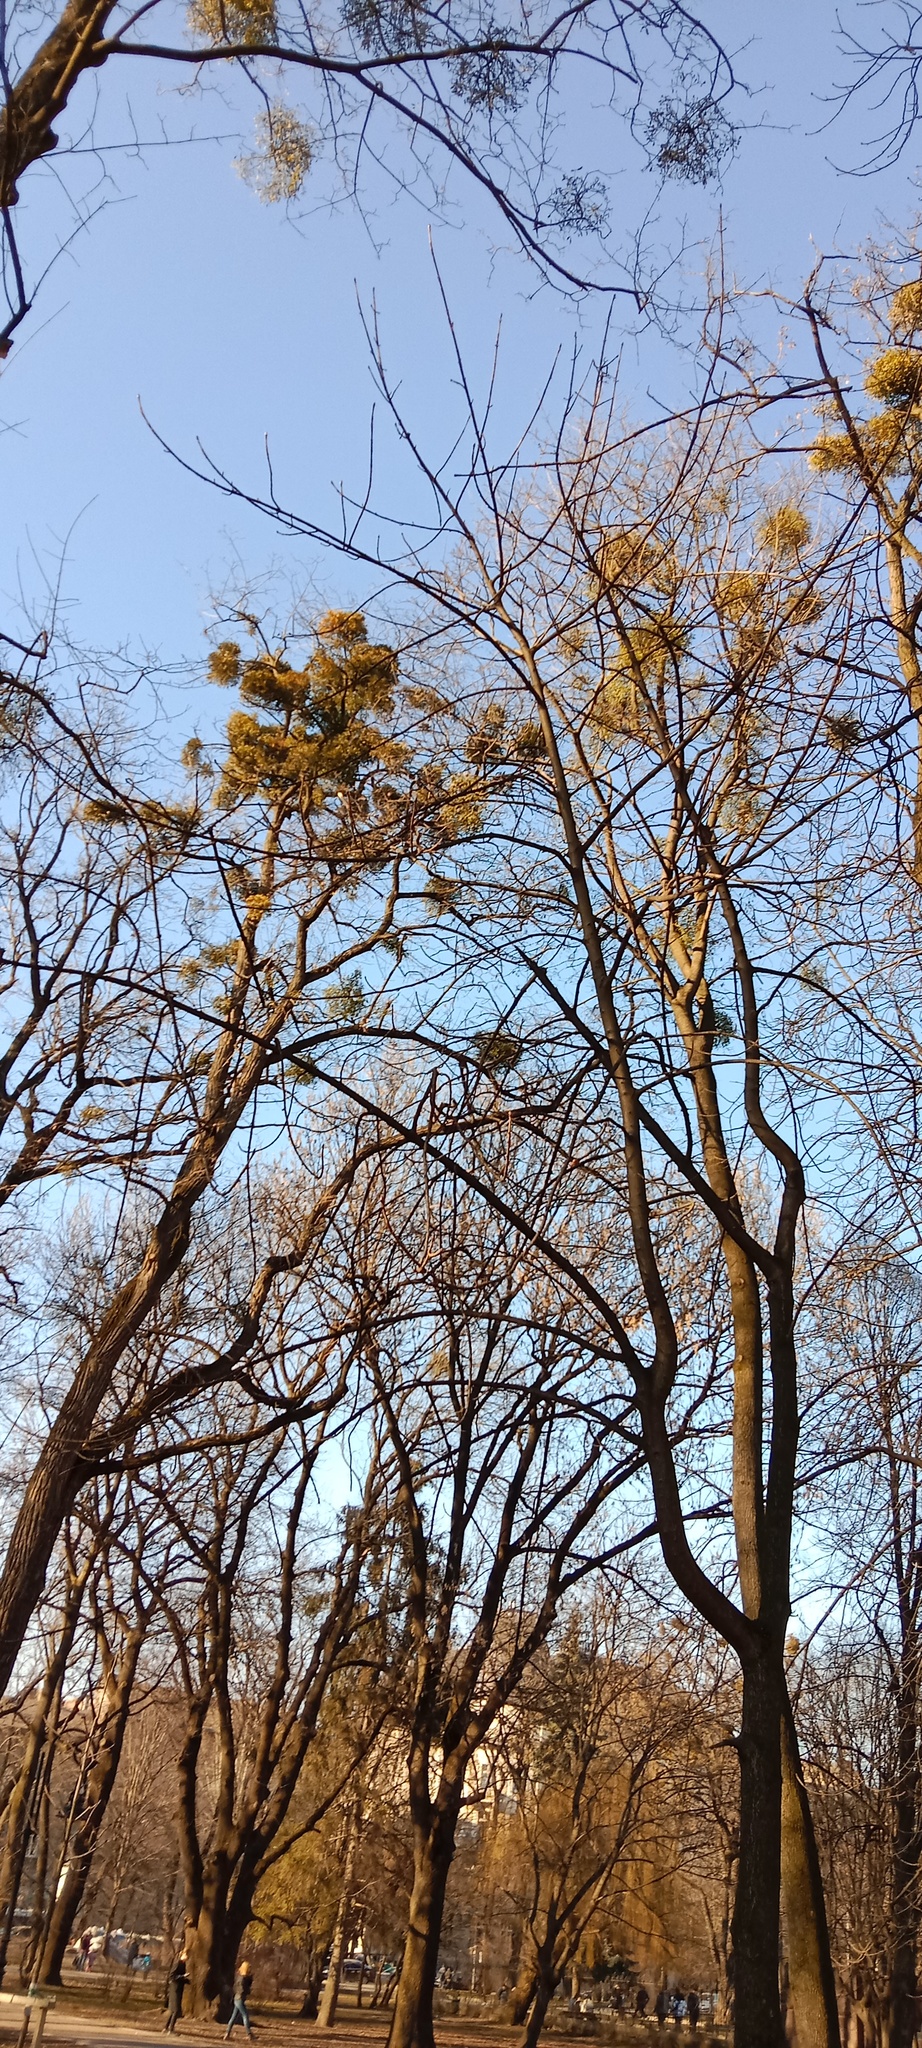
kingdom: Plantae
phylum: Tracheophyta
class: Magnoliopsida
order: Santalales
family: Viscaceae
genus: Viscum
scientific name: Viscum album
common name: Mistletoe
